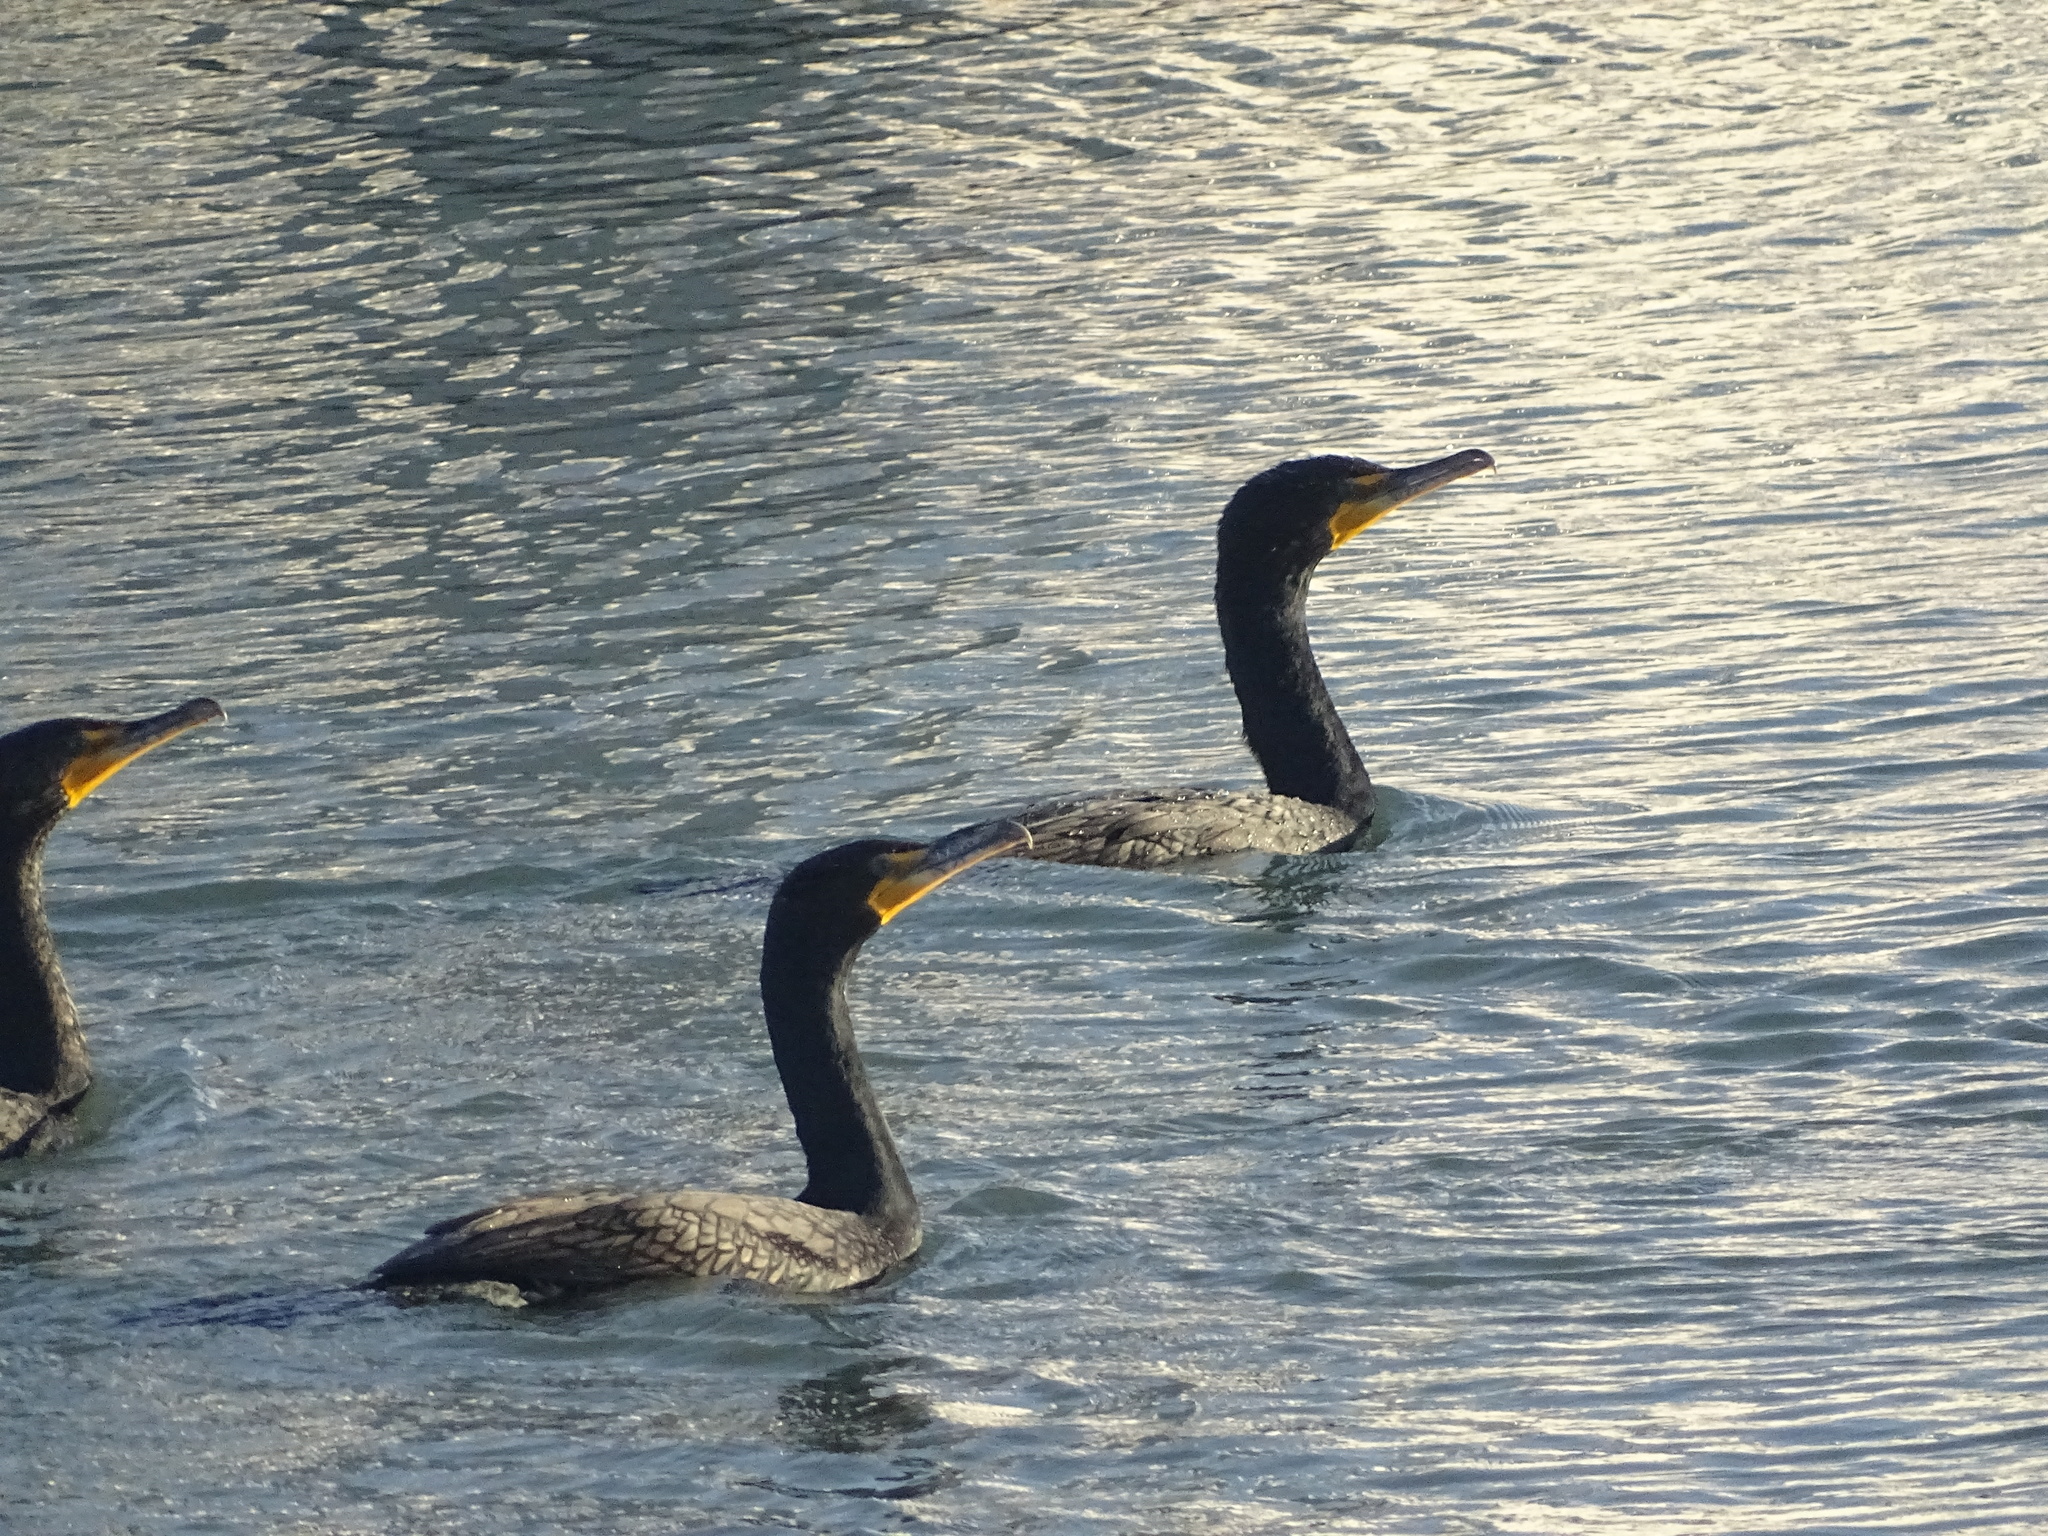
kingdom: Animalia
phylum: Chordata
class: Aves
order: Suliformes
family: Phalacrocoracidae
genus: Phalacrocorax
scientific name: Phalacrocorax auritus
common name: Double-crested cormorant
